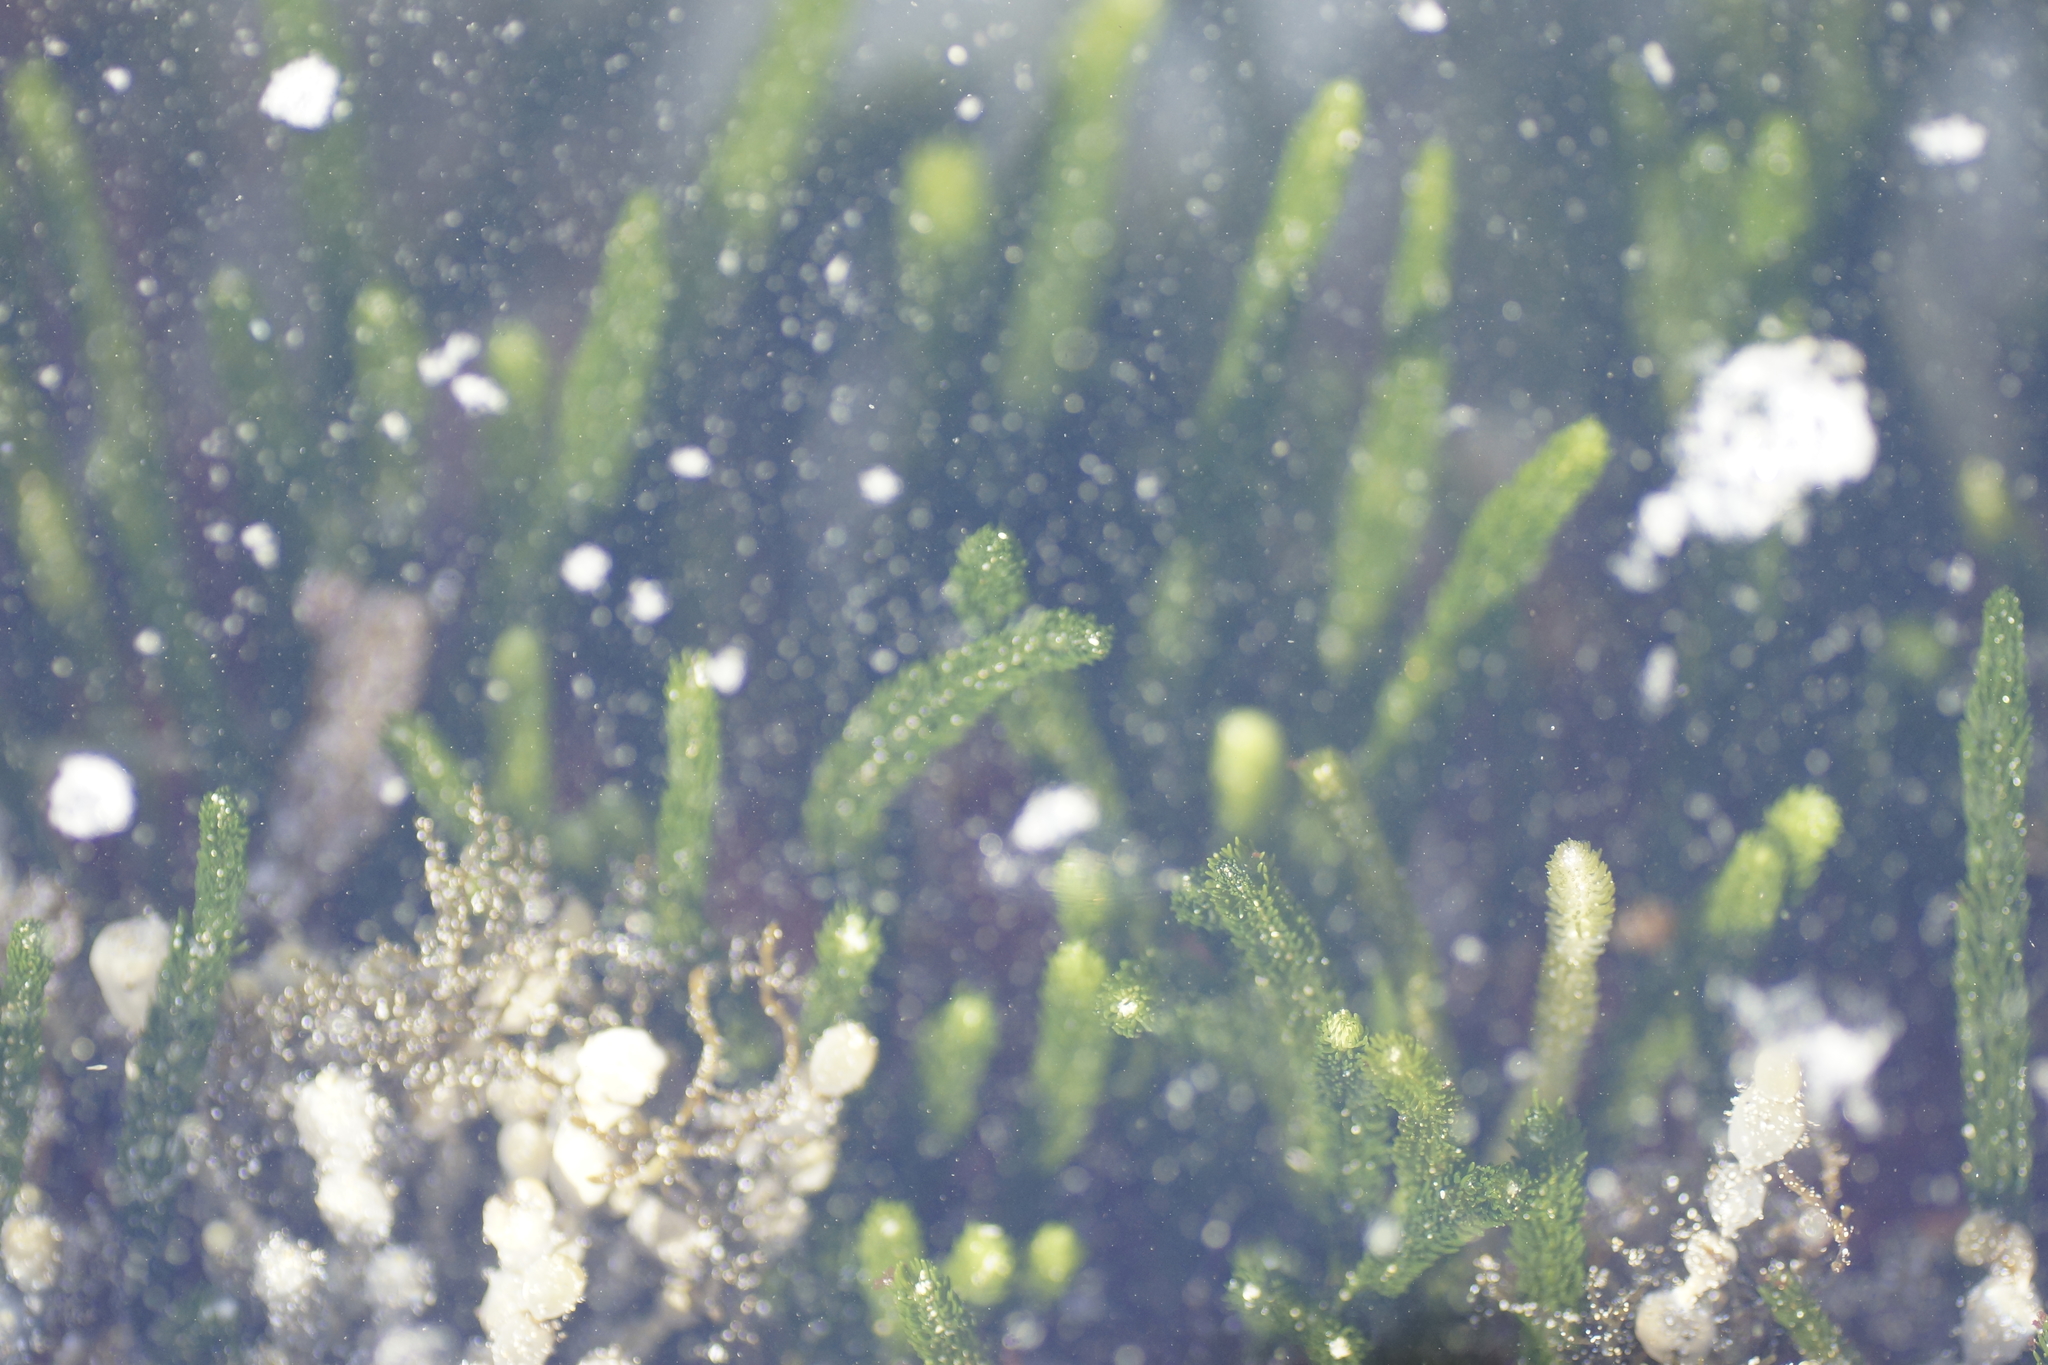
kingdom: Plantae
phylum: Chlorophyta
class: Ulvophyceae
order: Bryopsidales
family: Caulerpaceae
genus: Caulerpa
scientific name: Caulerpa brownii
